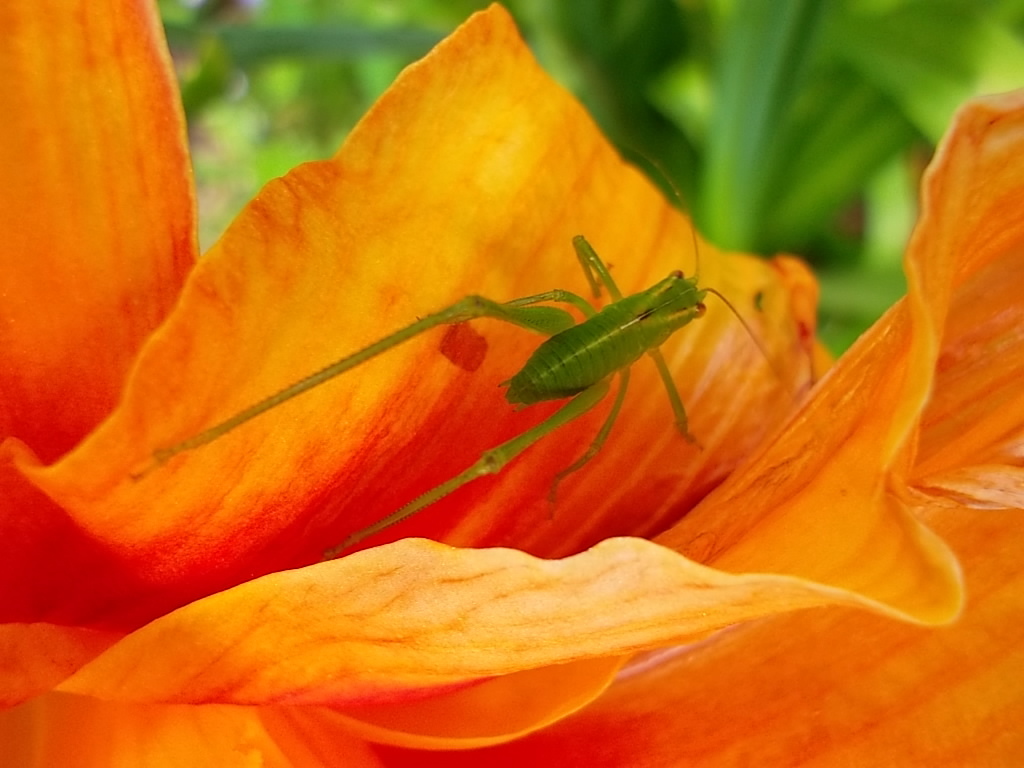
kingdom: Animalia
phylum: Arthropoda
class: Insecta
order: Orthoptera
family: Tettigoniidae
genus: Caedicia
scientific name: Caedicia simplex
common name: Common garden katydid
